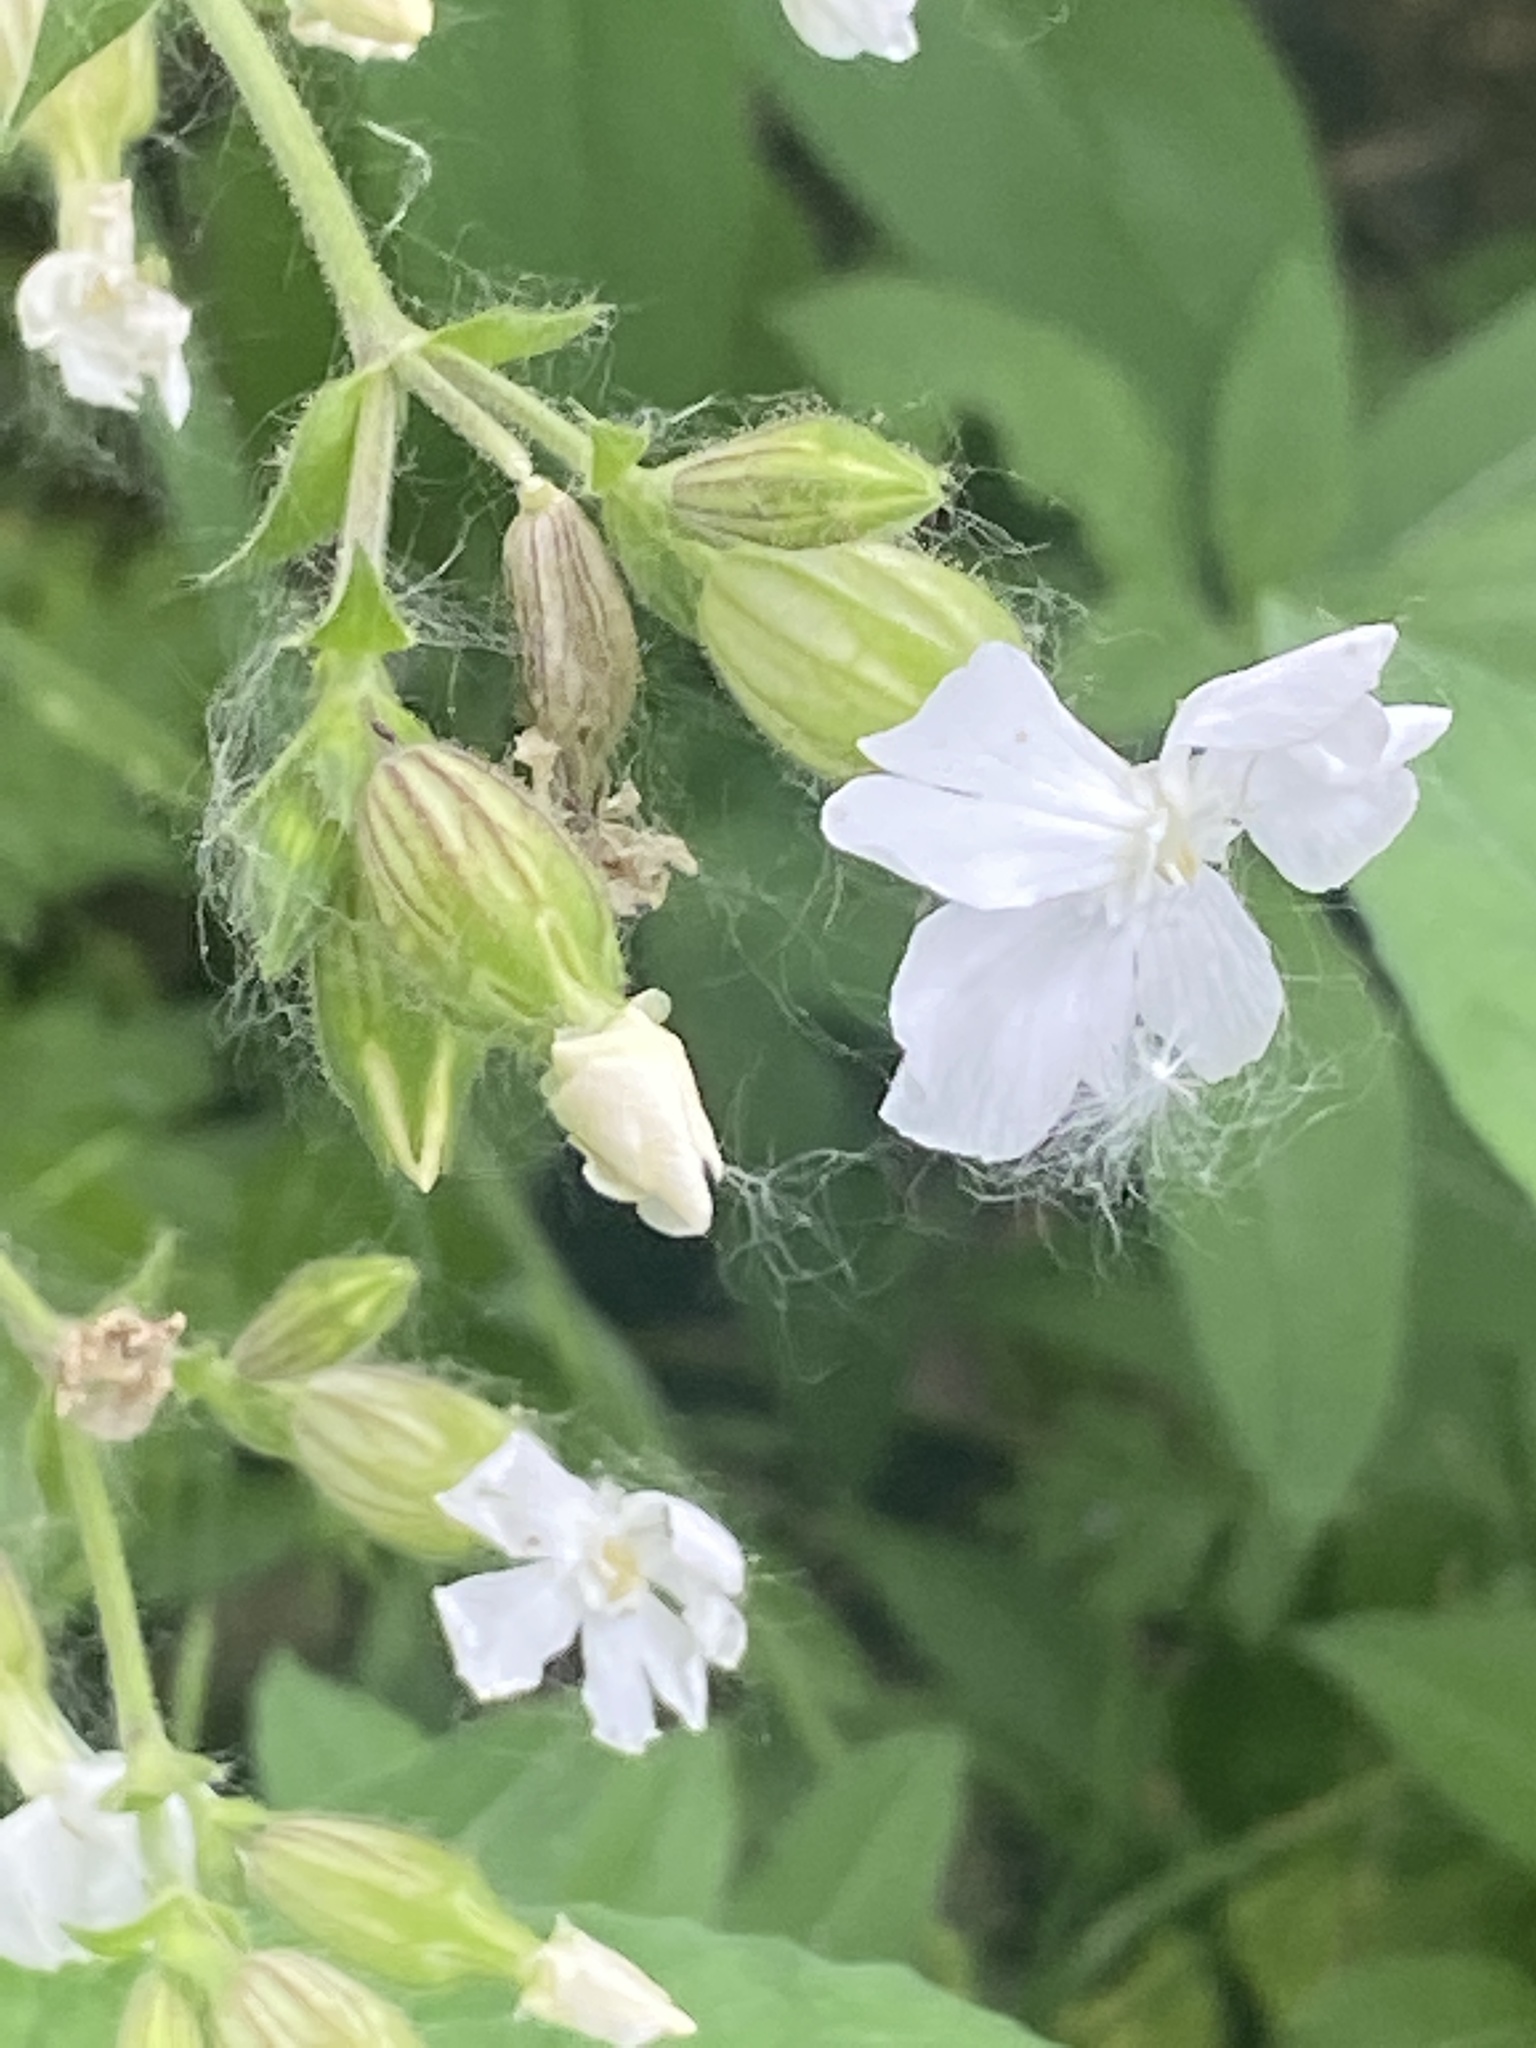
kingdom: Plantae
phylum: Tracheophyta
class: Magnoliopsida
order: Caryophyllales
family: Caryophyllaceae
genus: Silene
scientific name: Silene latifolia
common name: White campion
